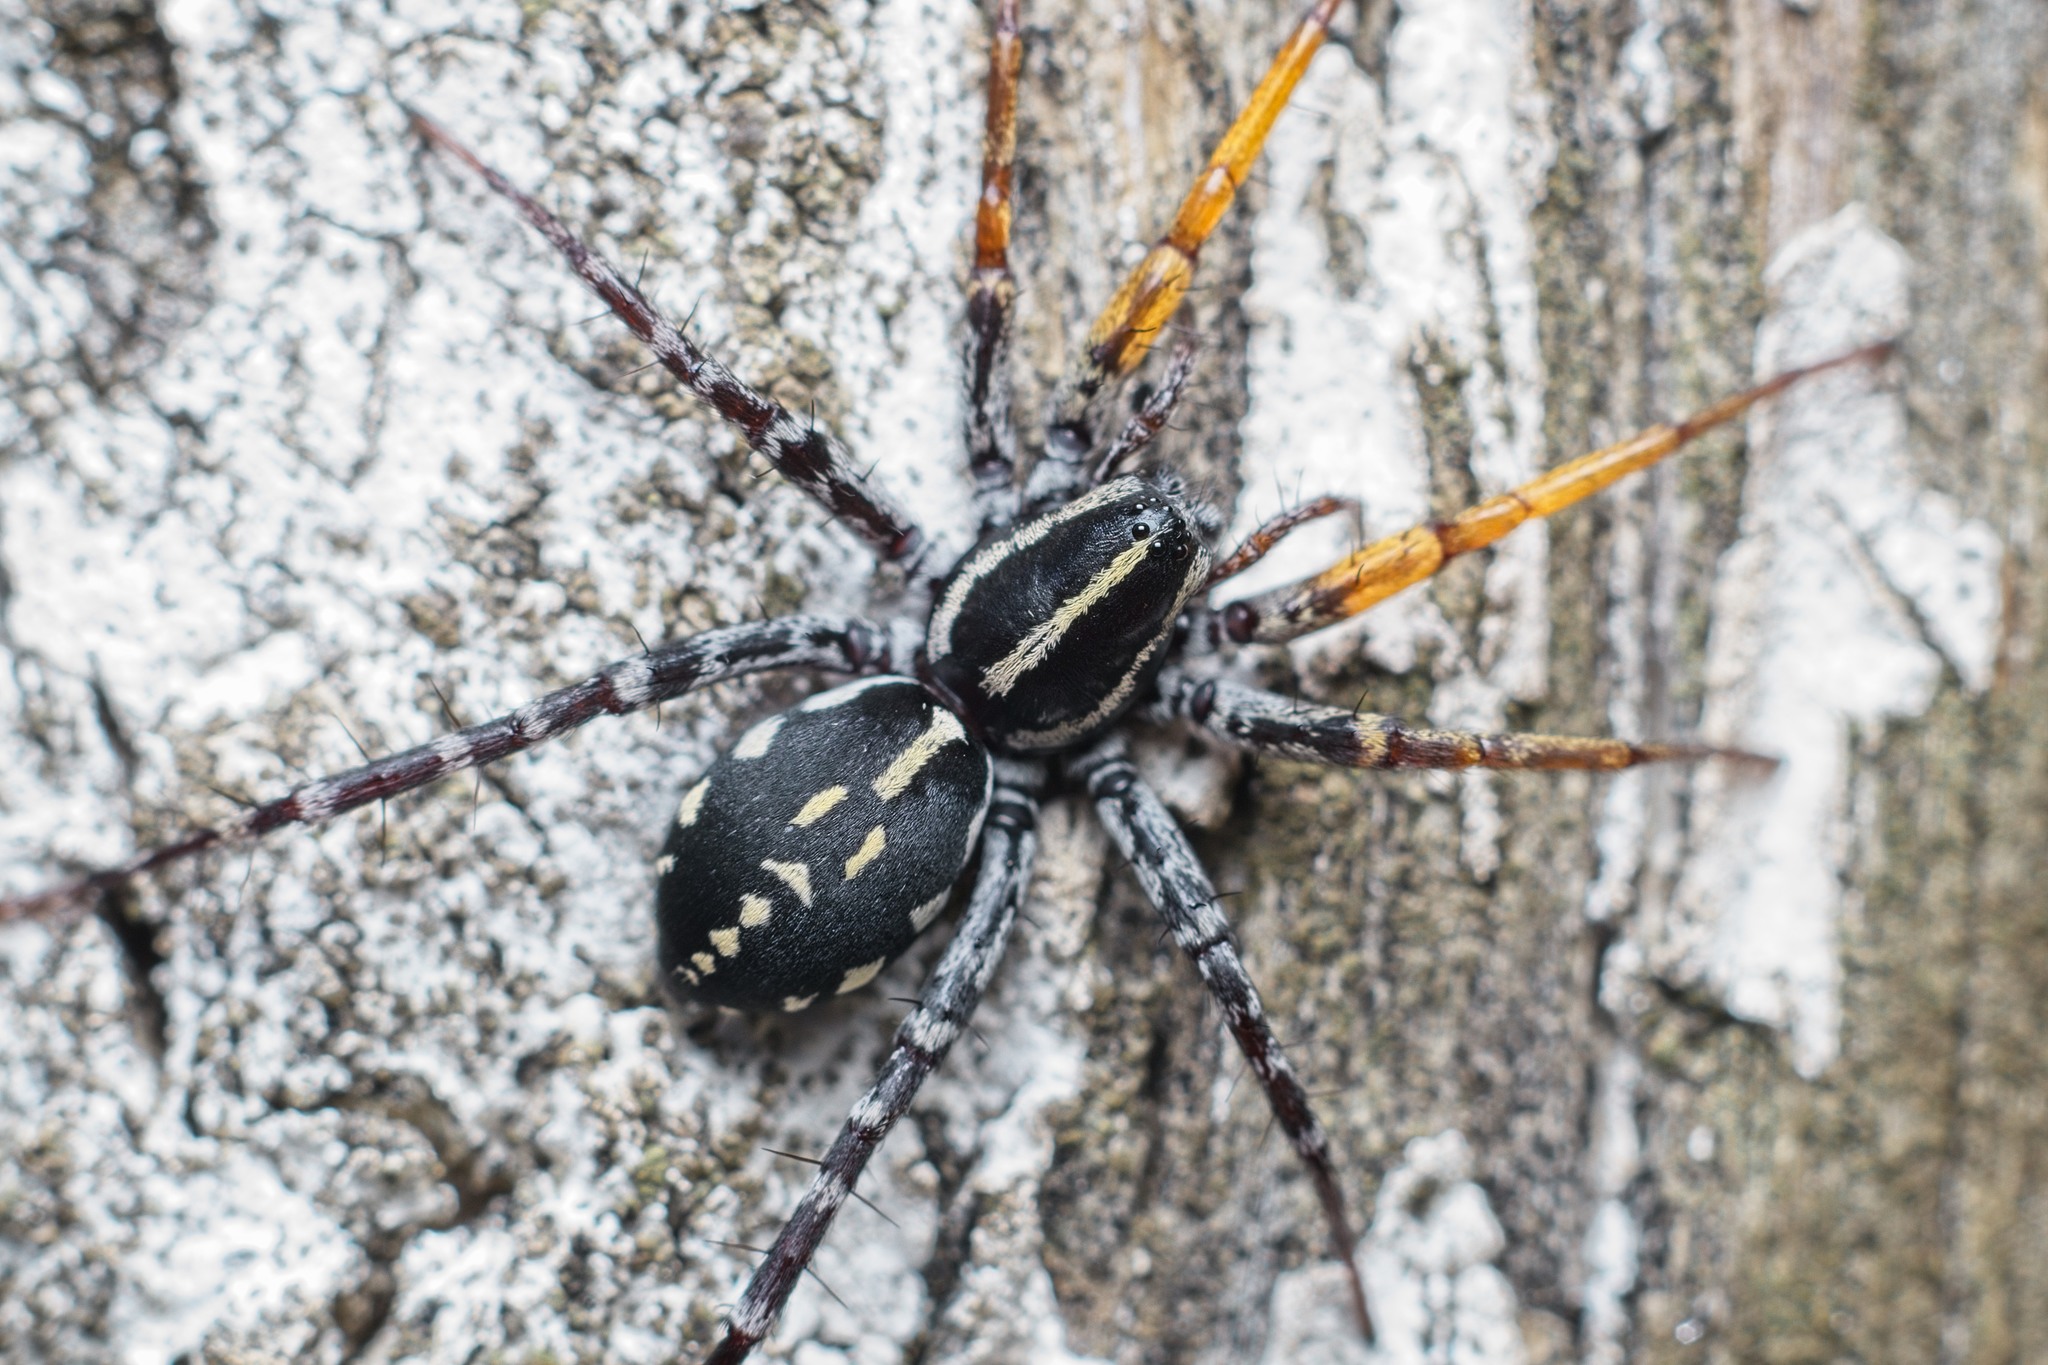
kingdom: Animalia
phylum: Arthropoda
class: Arachnida
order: Araneae
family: Corinnidae
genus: Nyssus
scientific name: Nyssus coloripes
